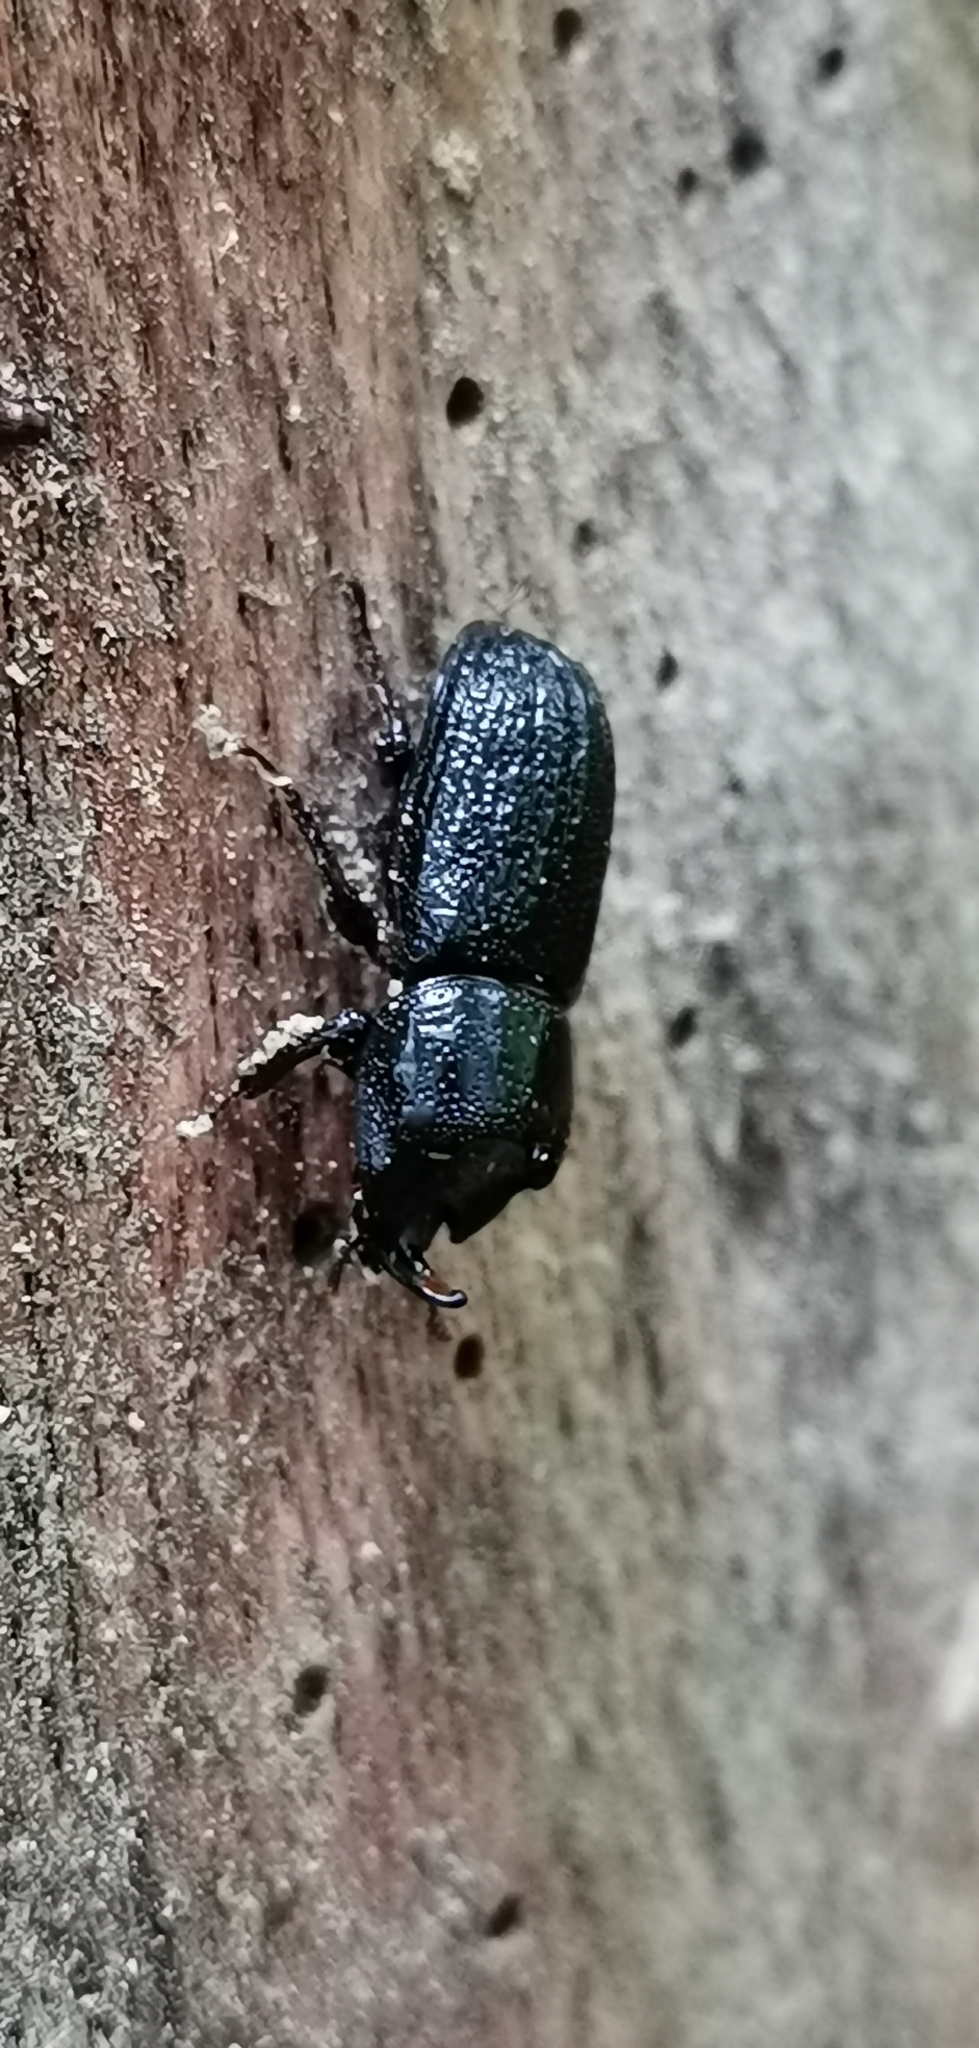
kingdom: Animalia
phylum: Arthropoda
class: Insecta
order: Coleoptera
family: Lucanidae
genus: Sinodendron
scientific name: Sinodendron cylindricum
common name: Rhinoceros beetle
